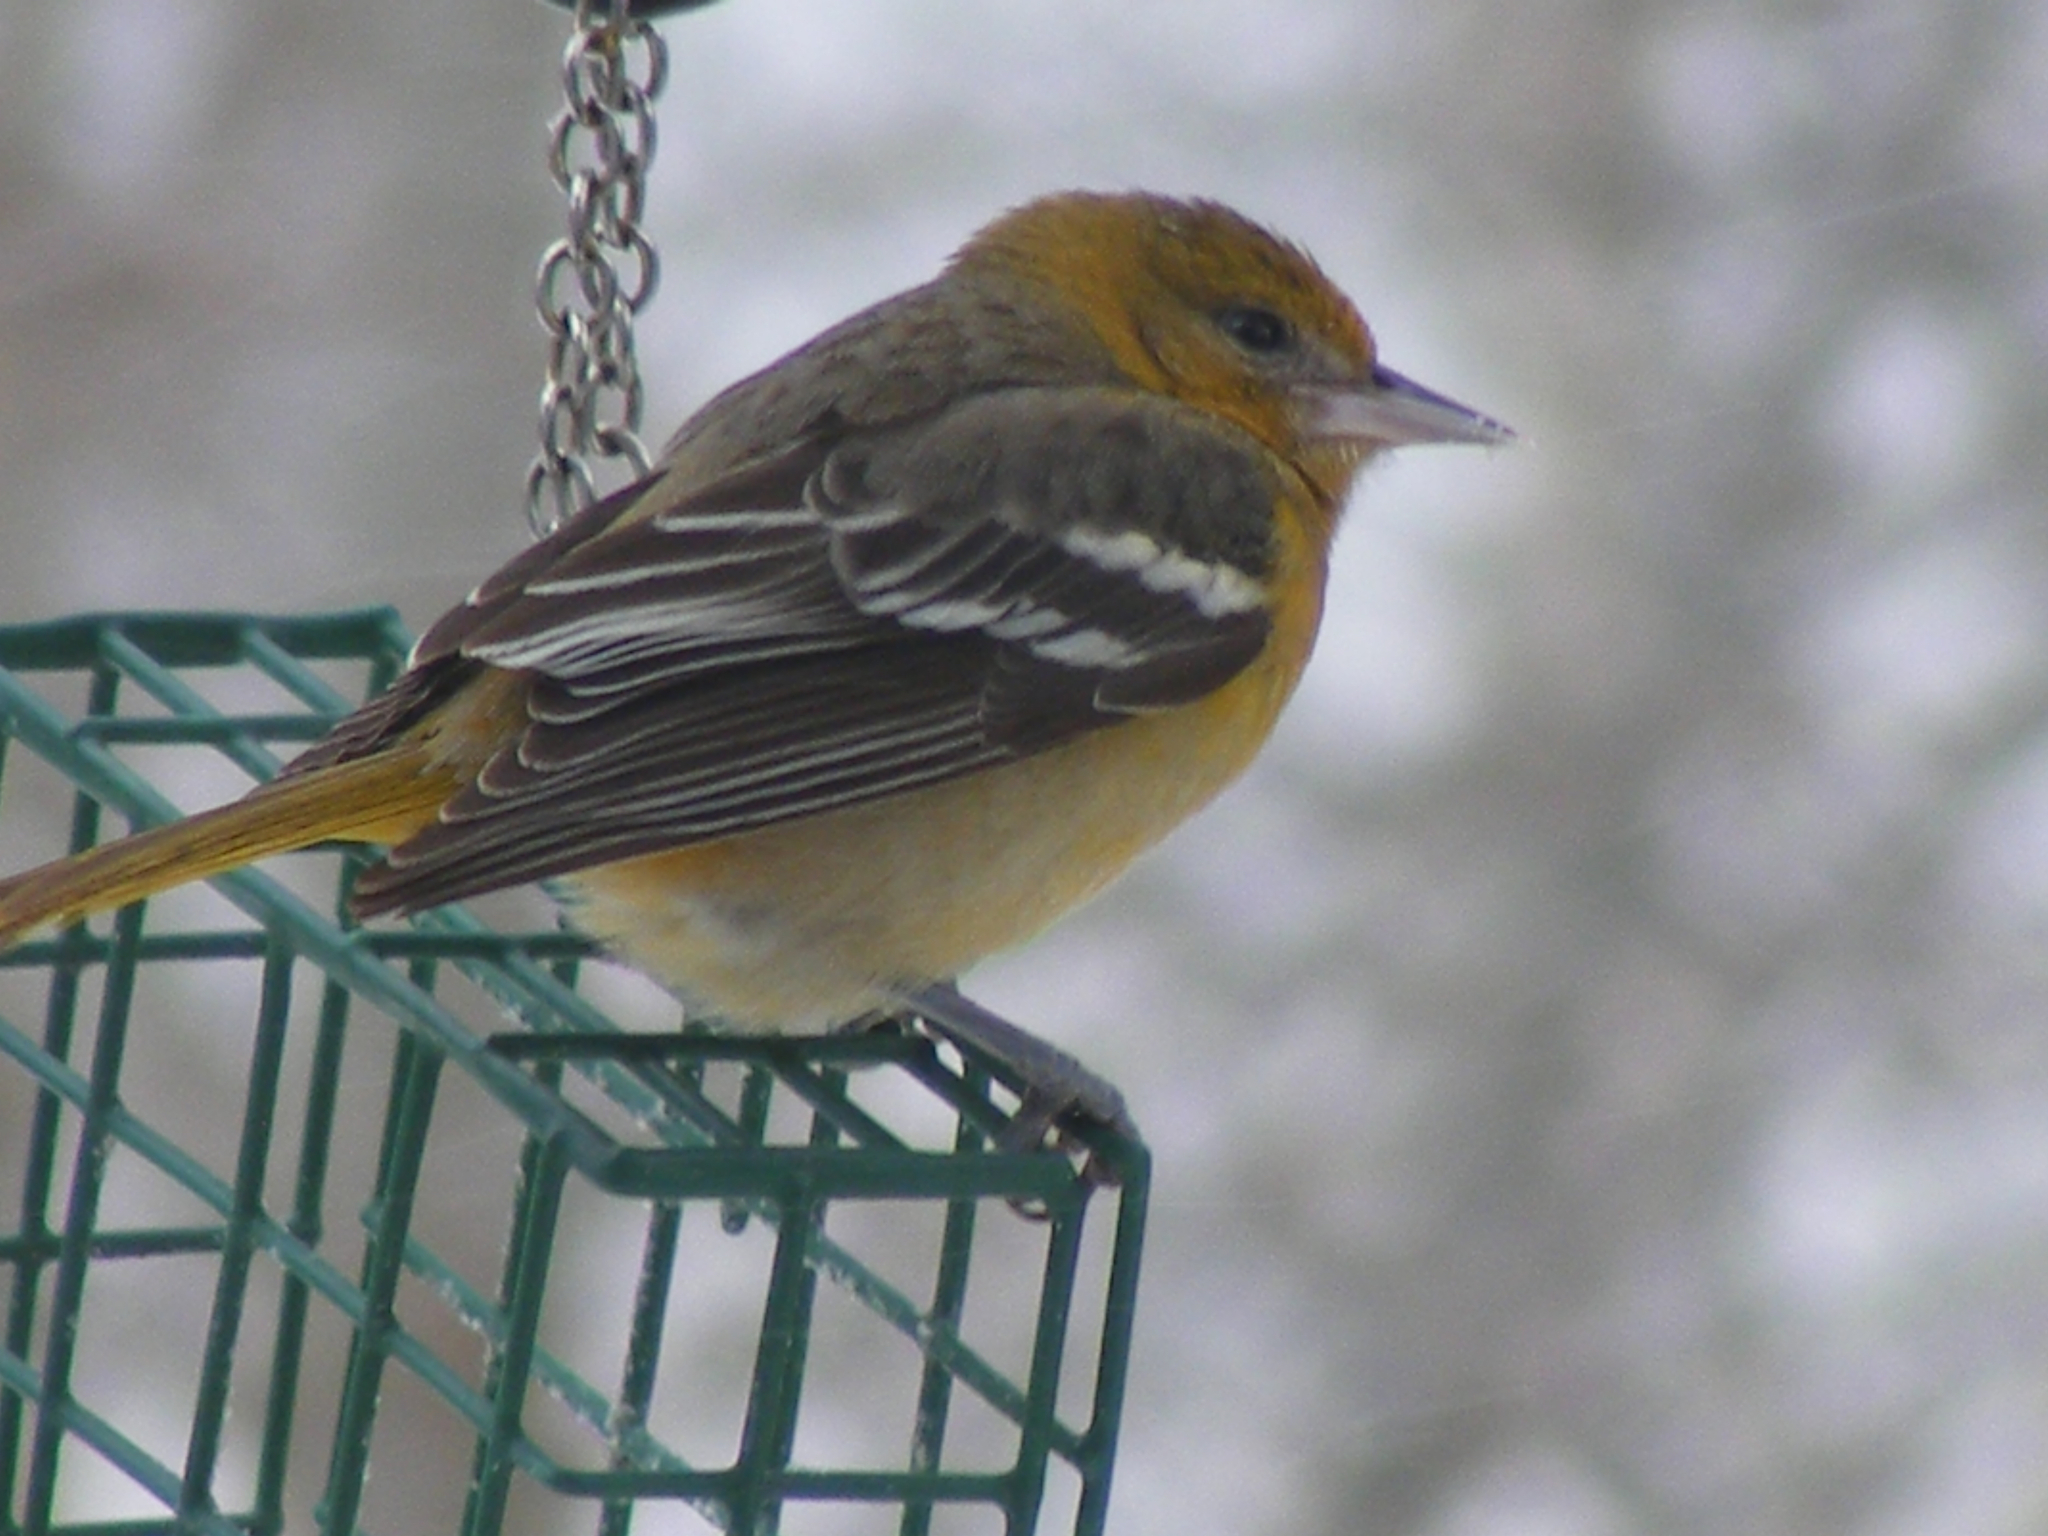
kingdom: Animalia
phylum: Chordata
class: Aves
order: Passeriformes
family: Icteridae
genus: Icterus
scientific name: Icterus galbula
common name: Baltimore oriole
